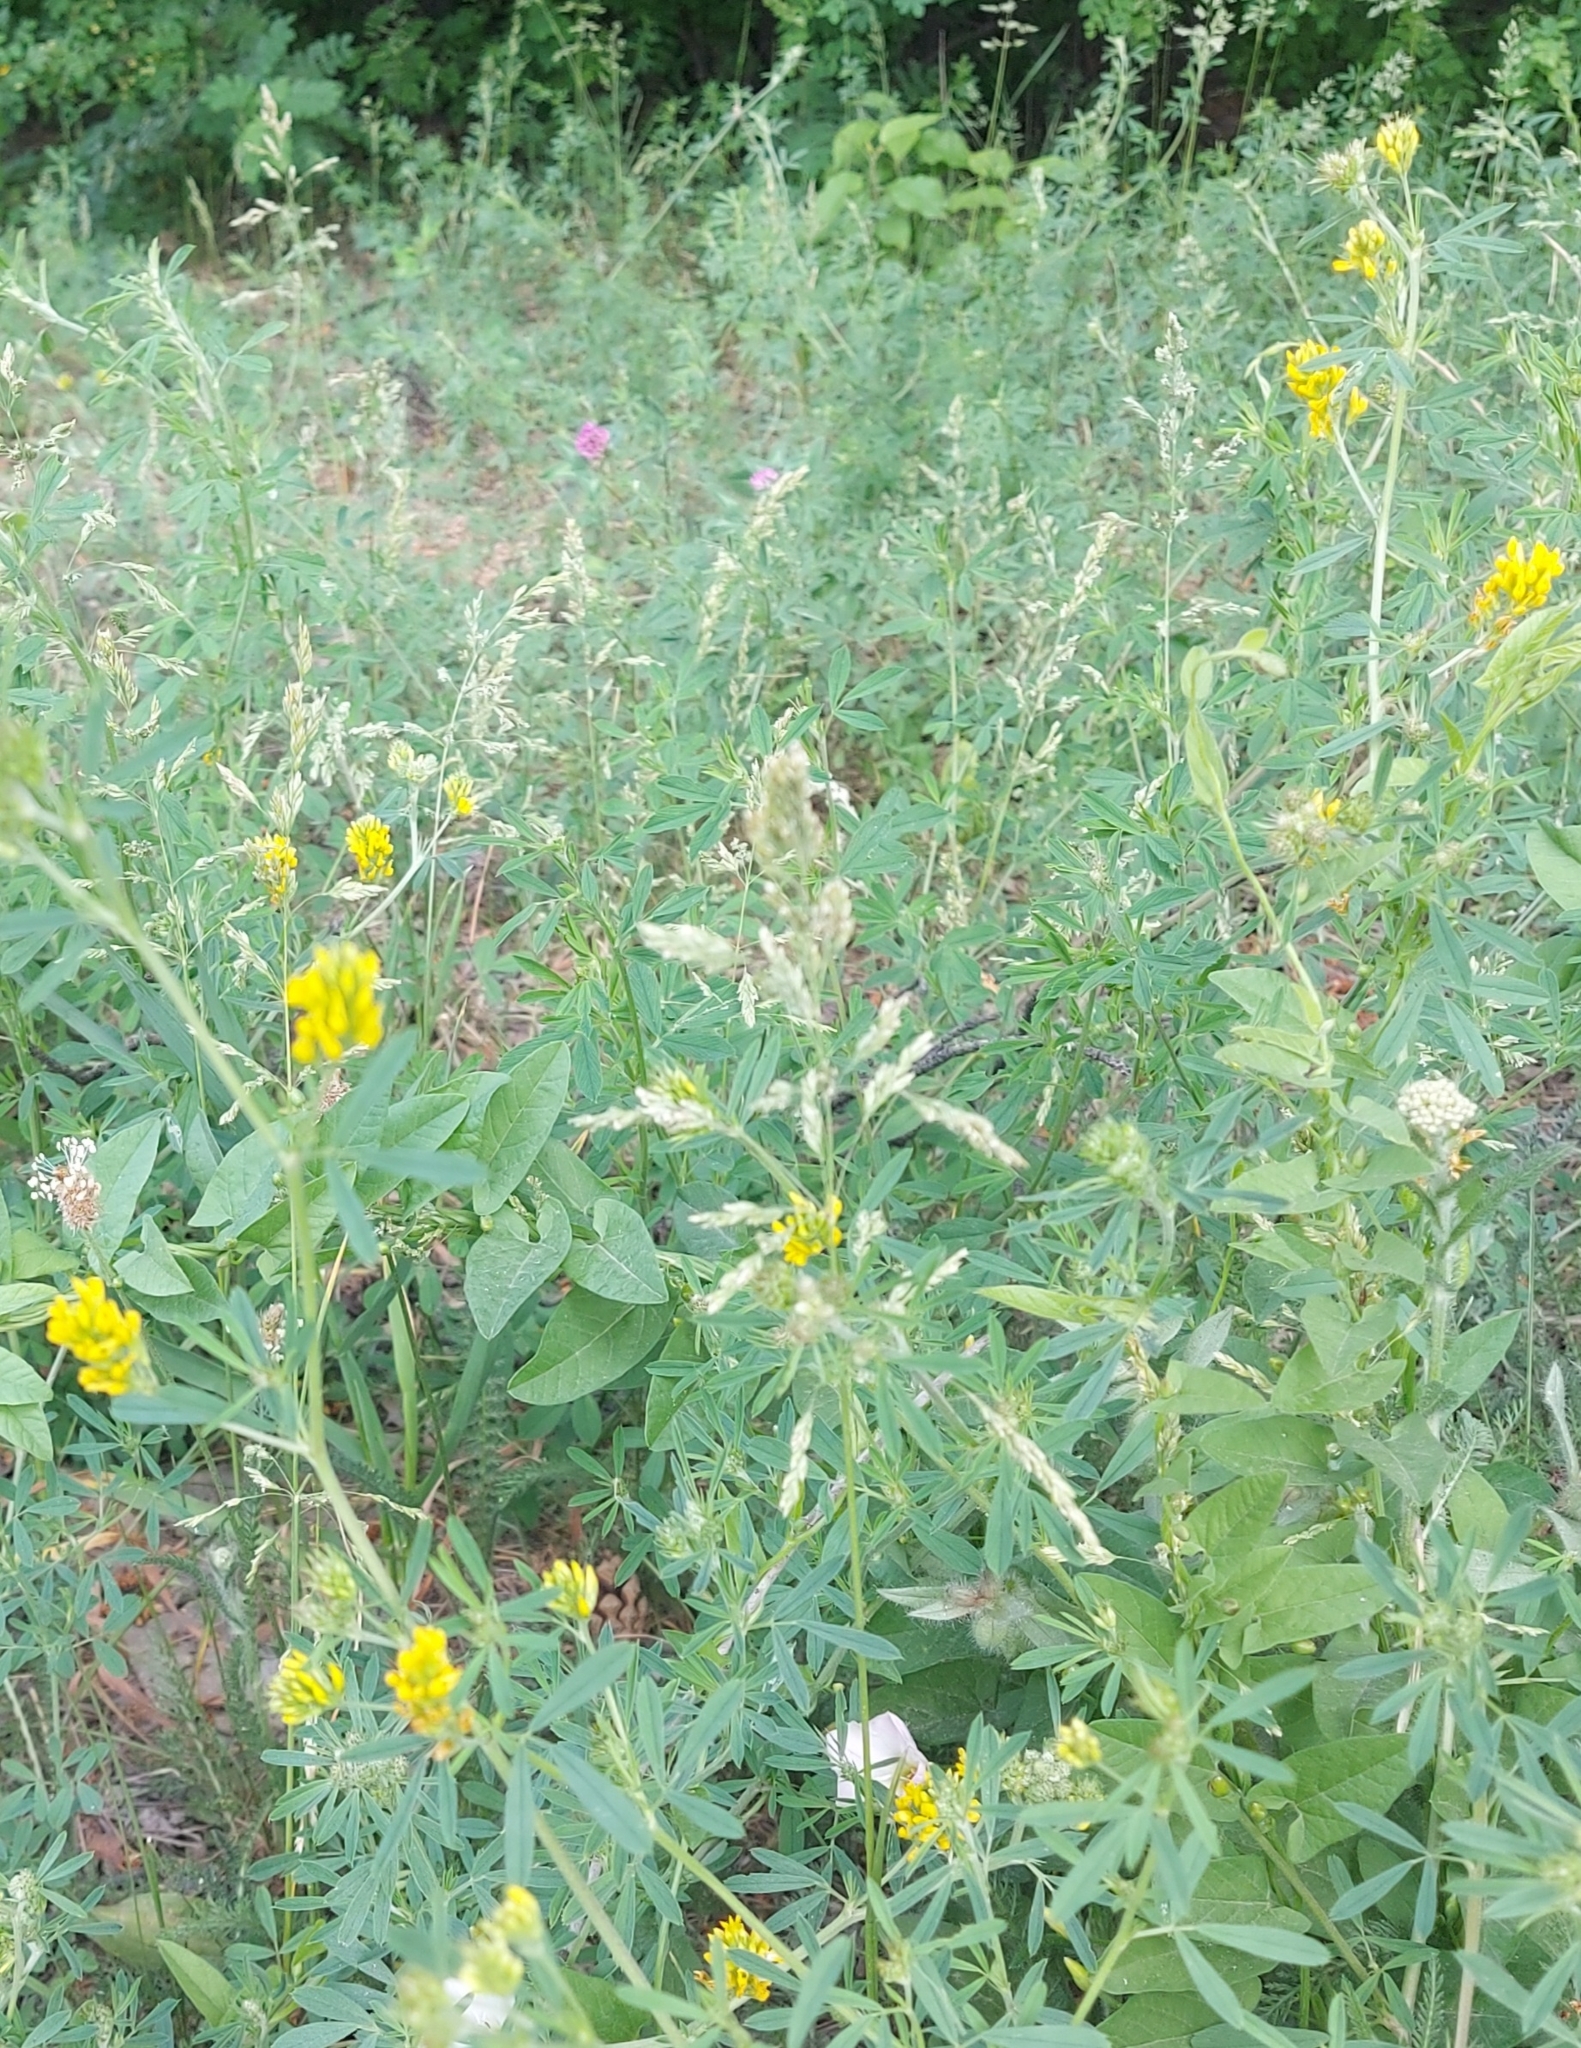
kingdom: Plantae
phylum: Tracheophyta
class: Magnoliopsida
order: Fabales
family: Fabaceae
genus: Medicago
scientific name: Medicago falcata
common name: Sickle medick
